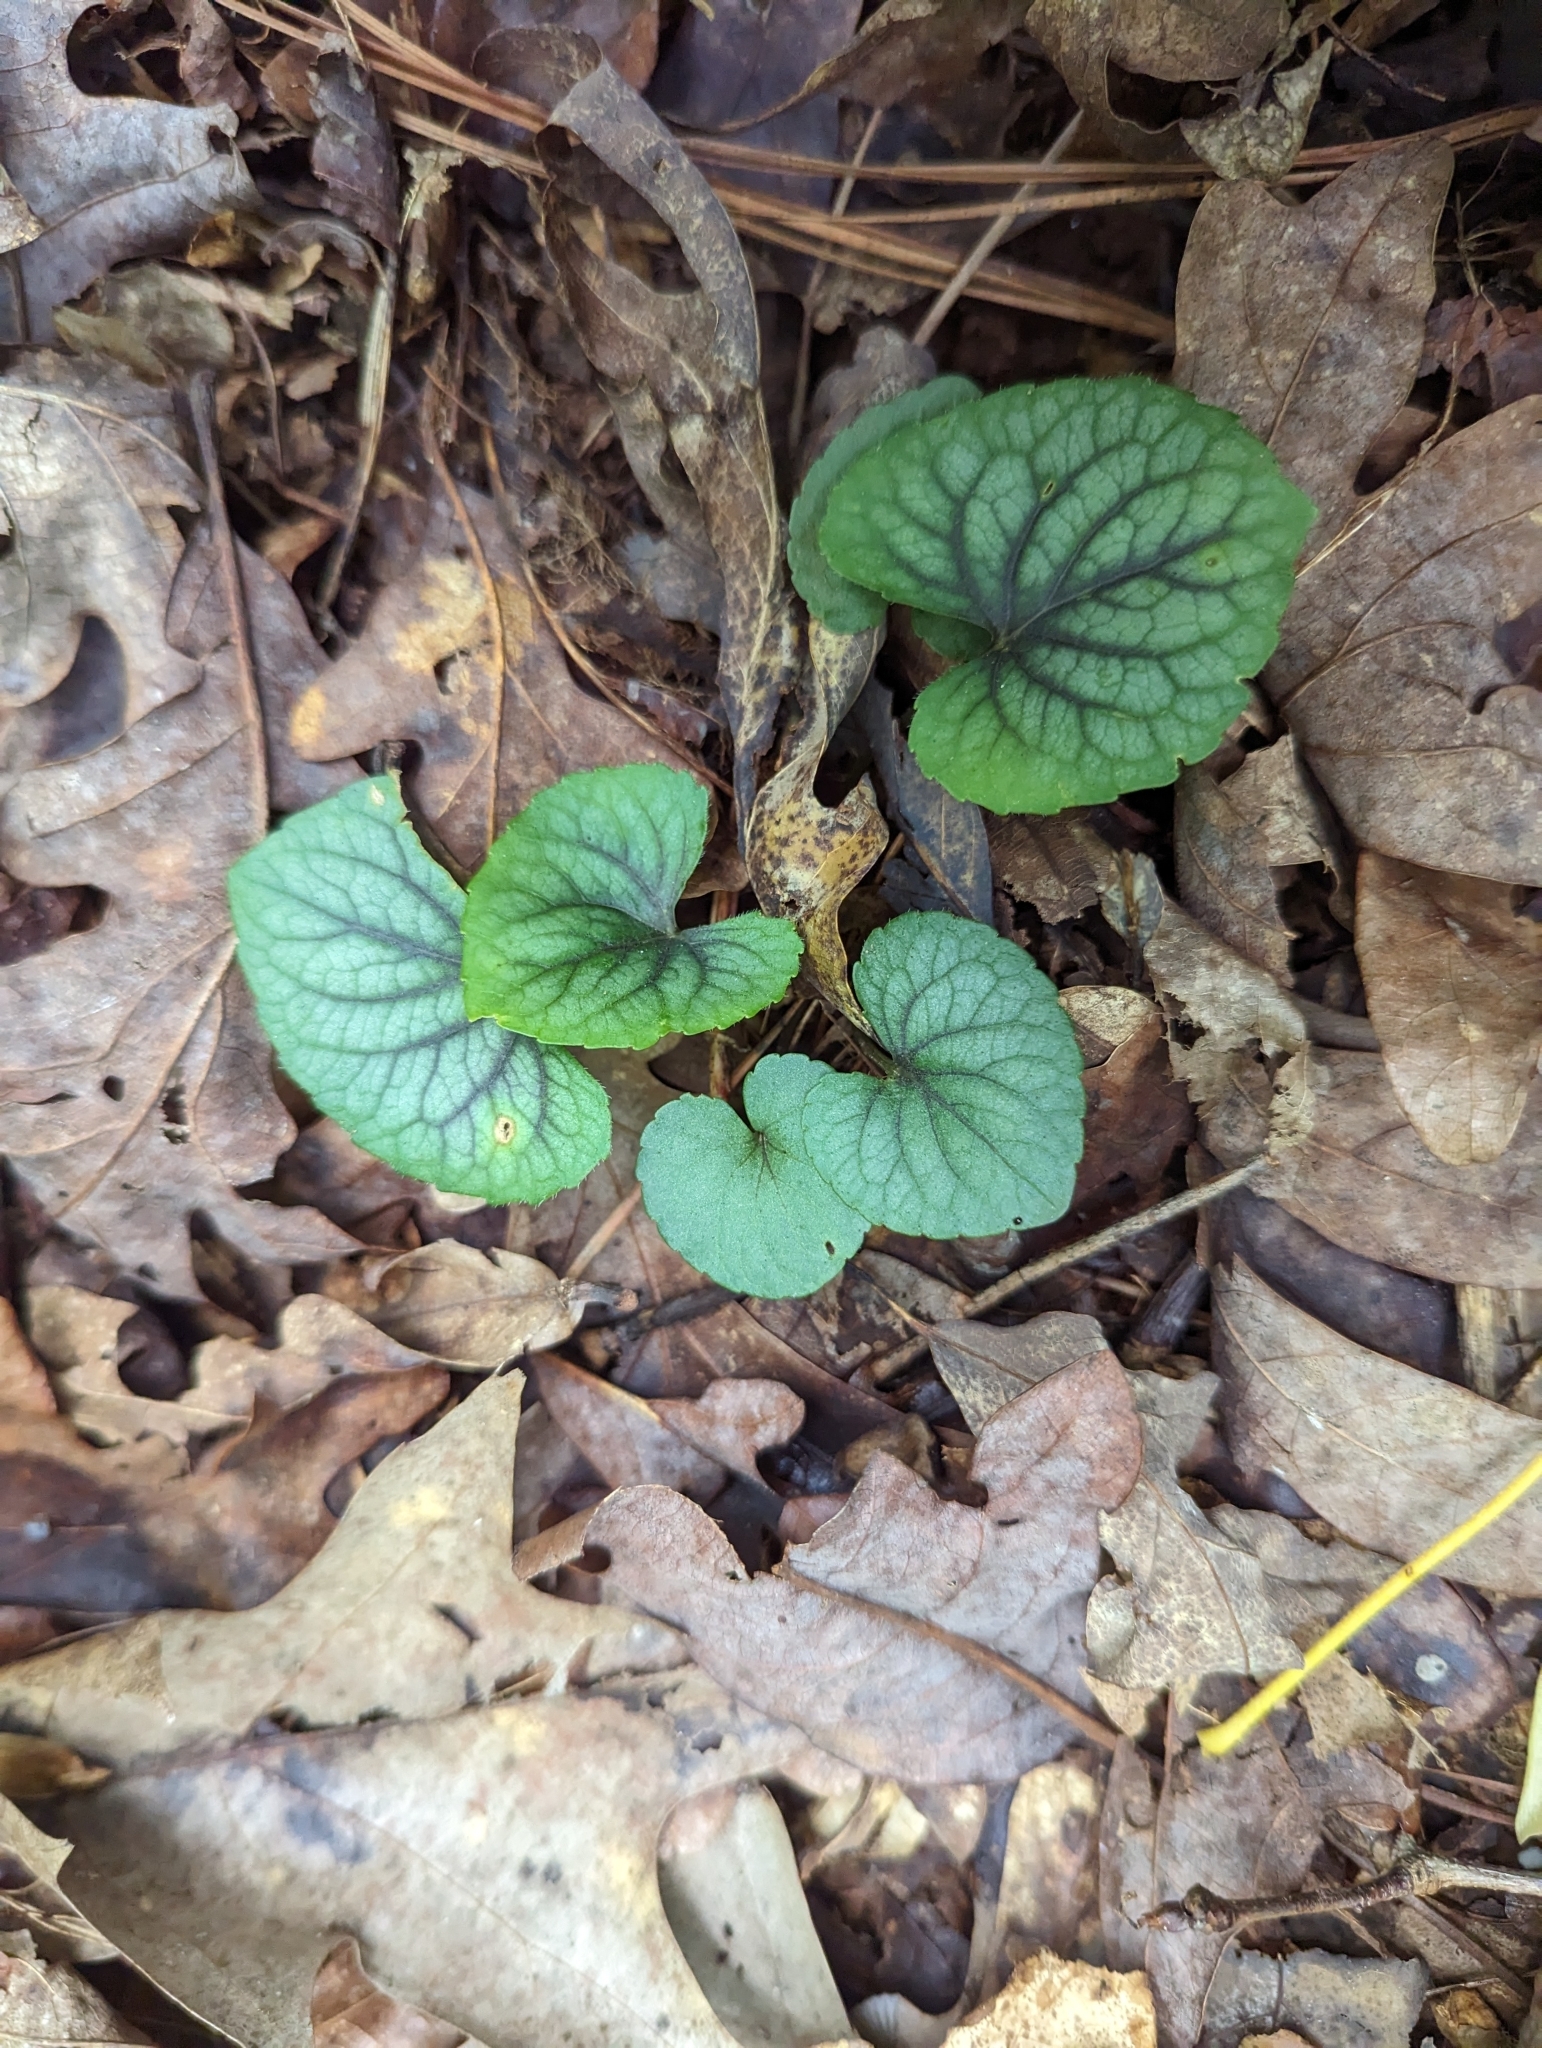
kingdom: Plantae
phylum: Tracheophyta
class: Magnoliopsida
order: Malpighiales
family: Violaceae
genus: Viola
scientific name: Viola hirsutula
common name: Southern wood violet
